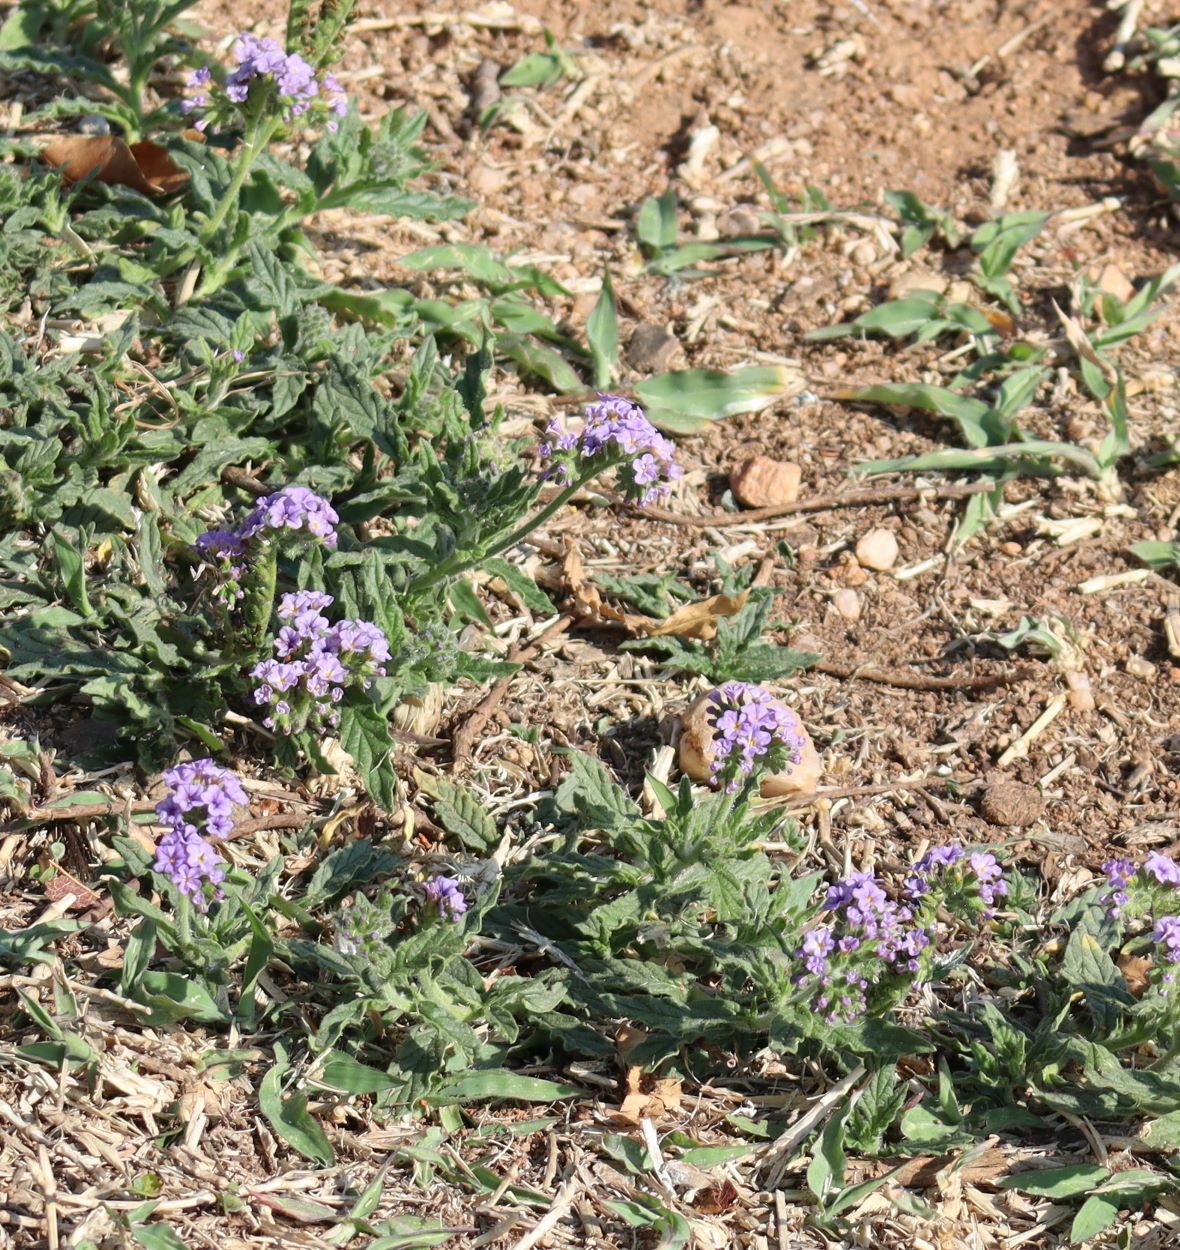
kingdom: Plantae
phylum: Tracheophyta
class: Magnoliopsida
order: Boraginales
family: Heliotropiaceae
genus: Heliotropium
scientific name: Heliotropium amplexicaule
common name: Clasping heliotrope
